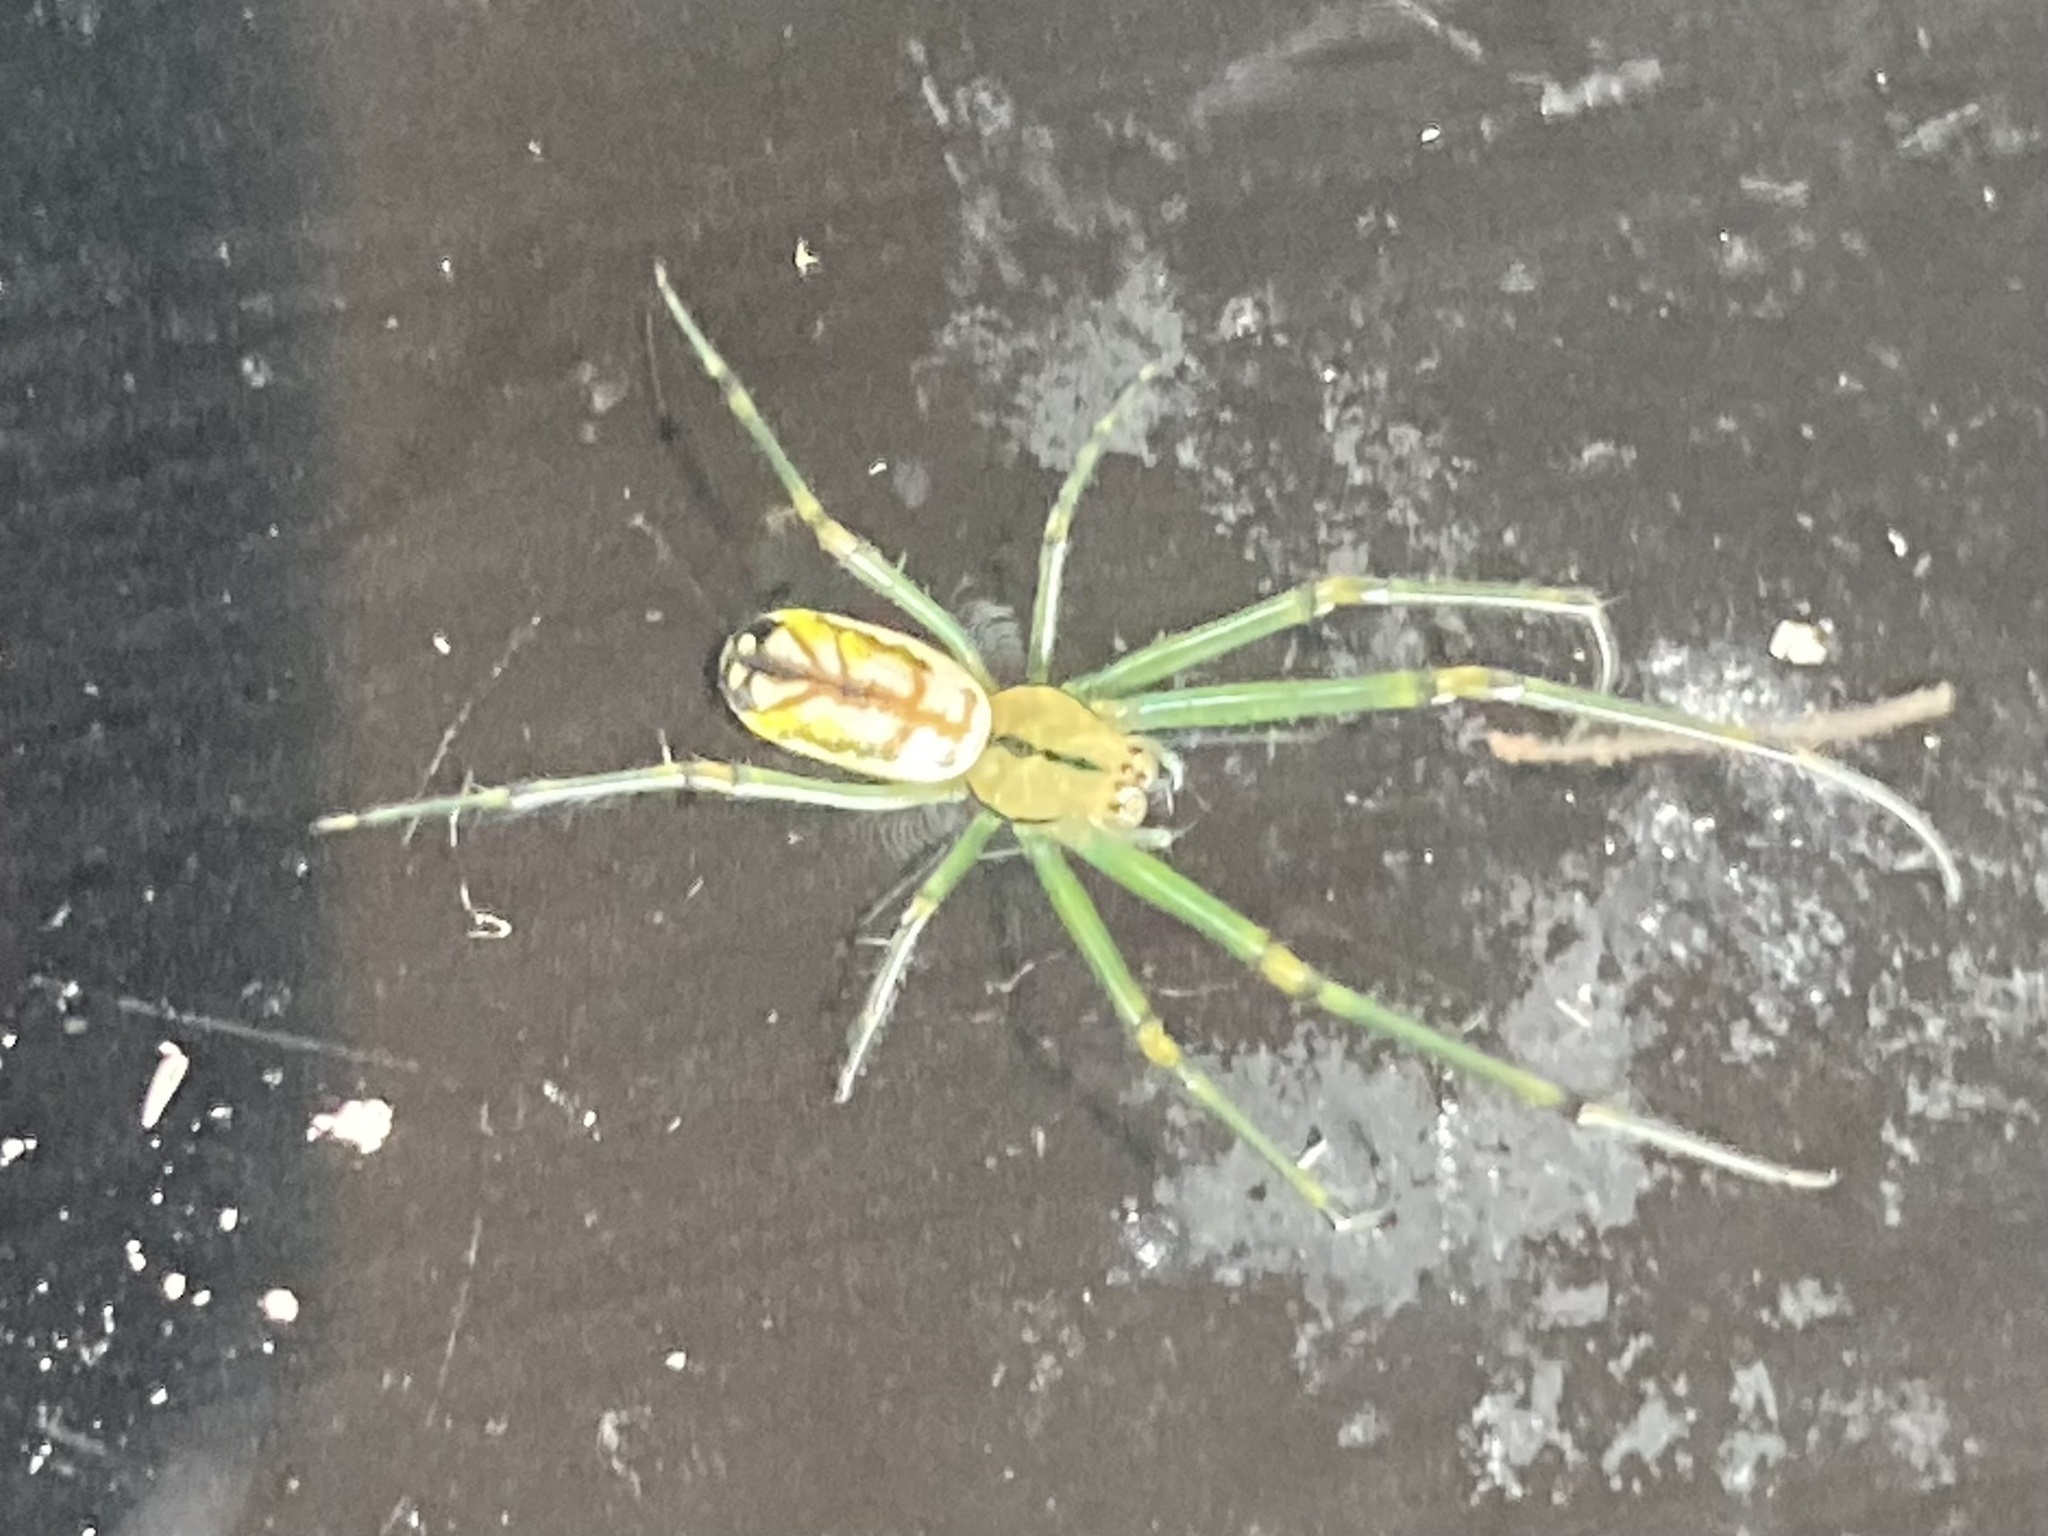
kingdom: Animalia
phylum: Arthropoda
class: Arachnida
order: Araneae
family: Tetragnathidae
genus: Leucauge
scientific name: Leucauge venusta
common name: Longjawed orb weavers
